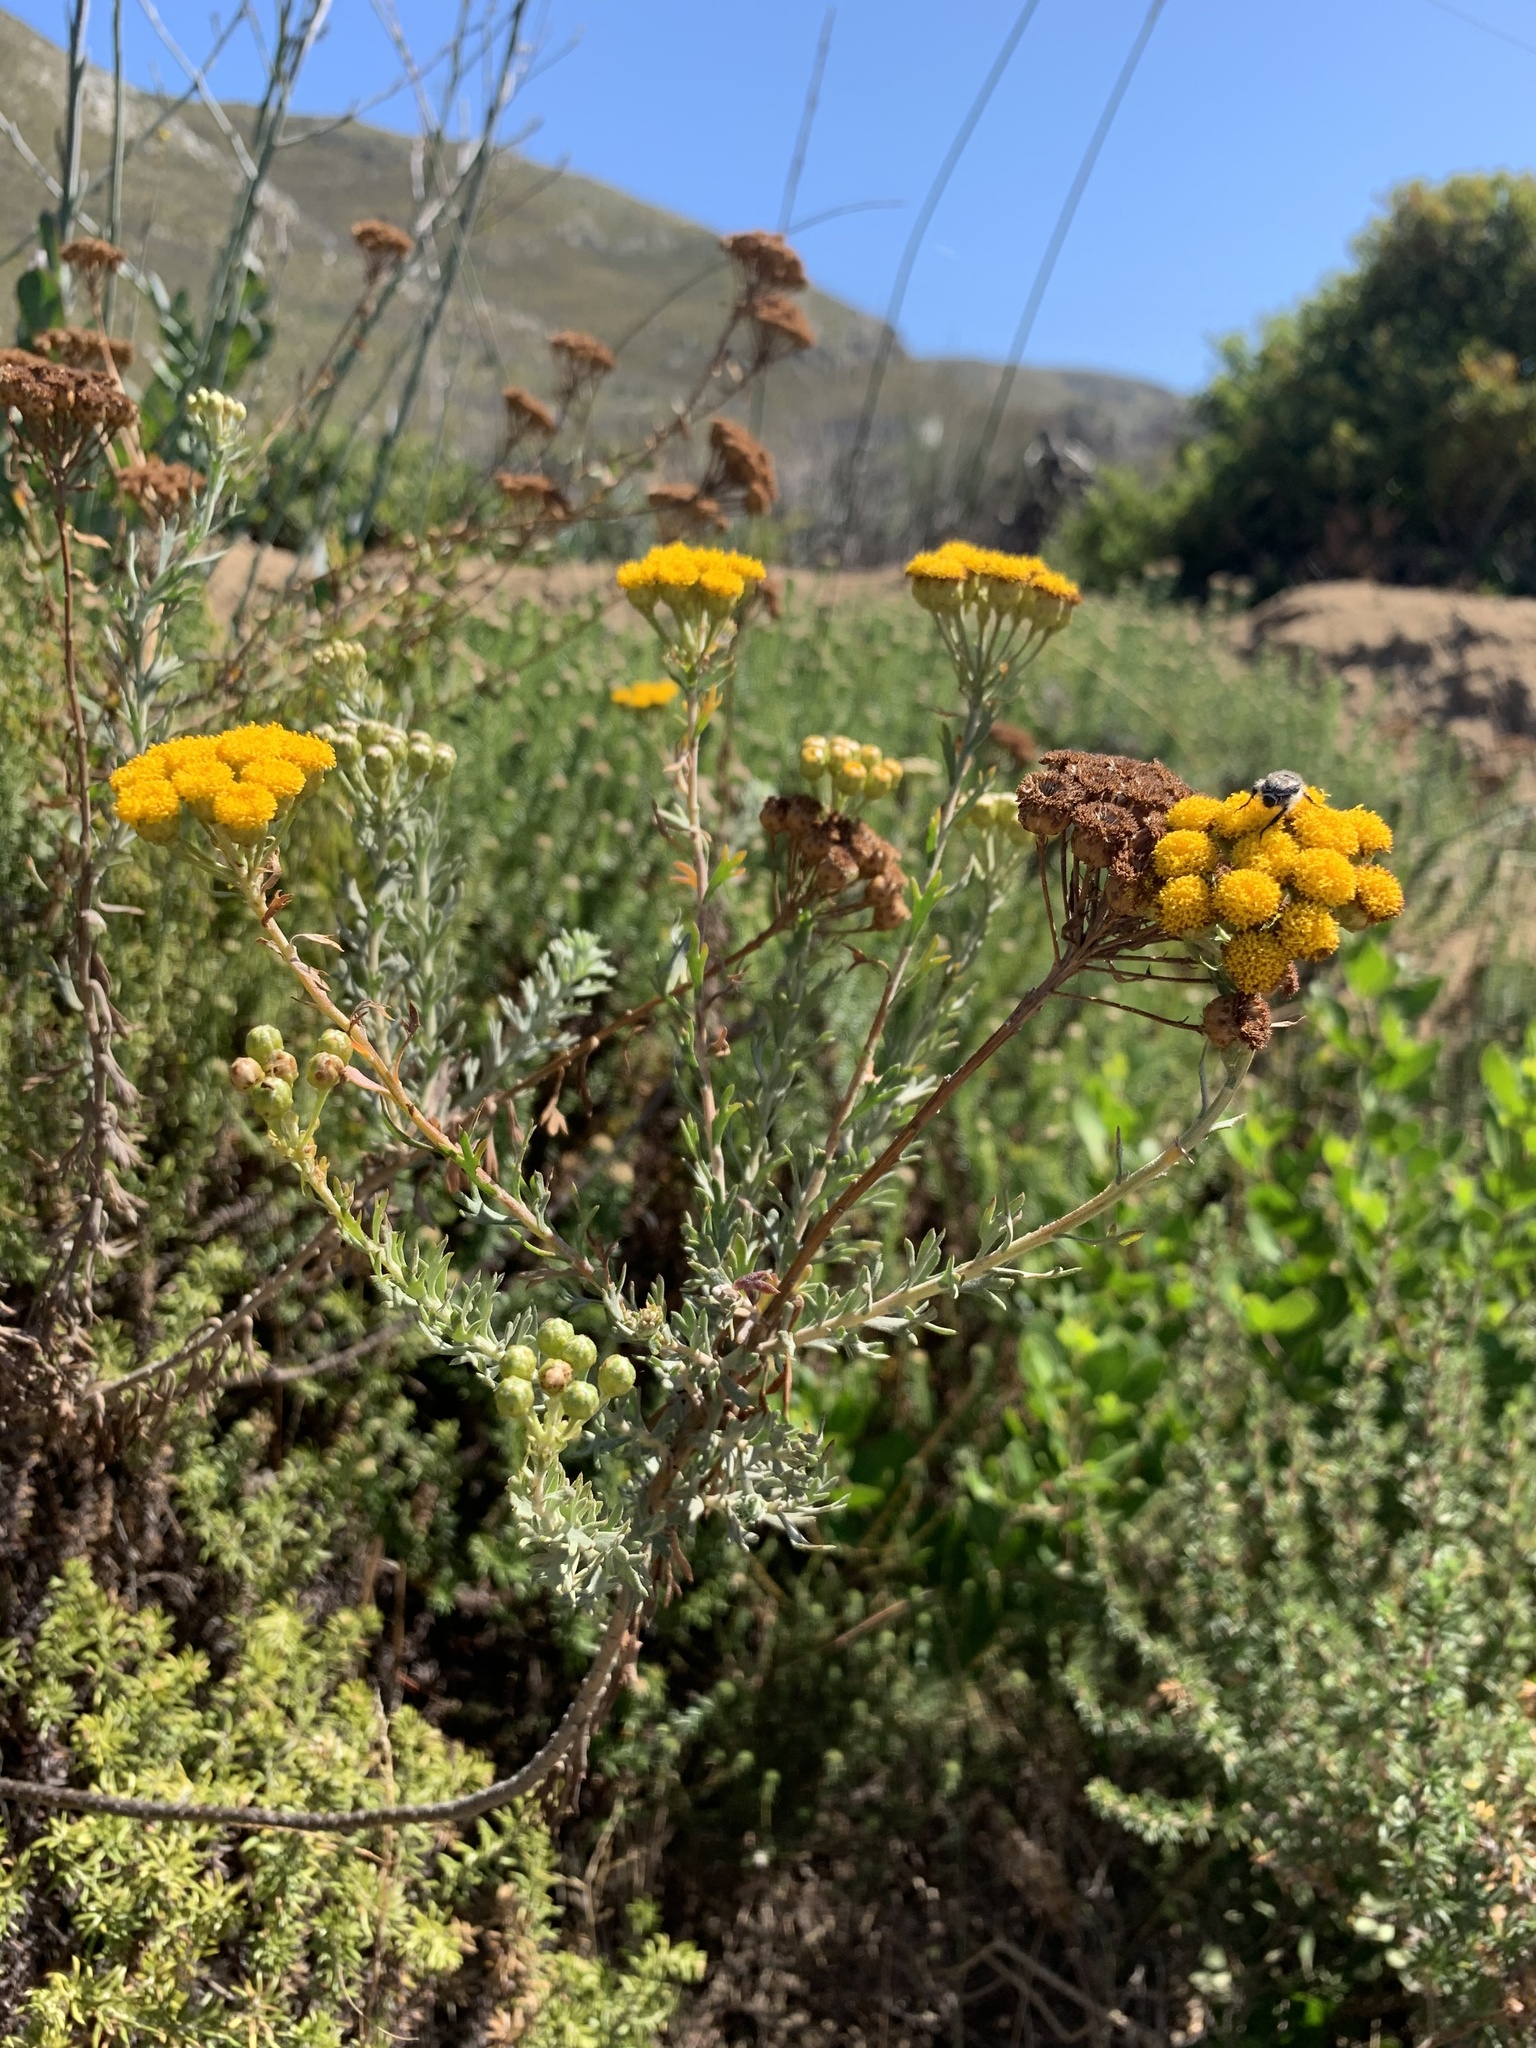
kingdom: Plantae
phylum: Tracheophyta
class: Magnoliopsida
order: Asterales
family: Asteraceae
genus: Athanasia
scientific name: Athanasia trifurcata
